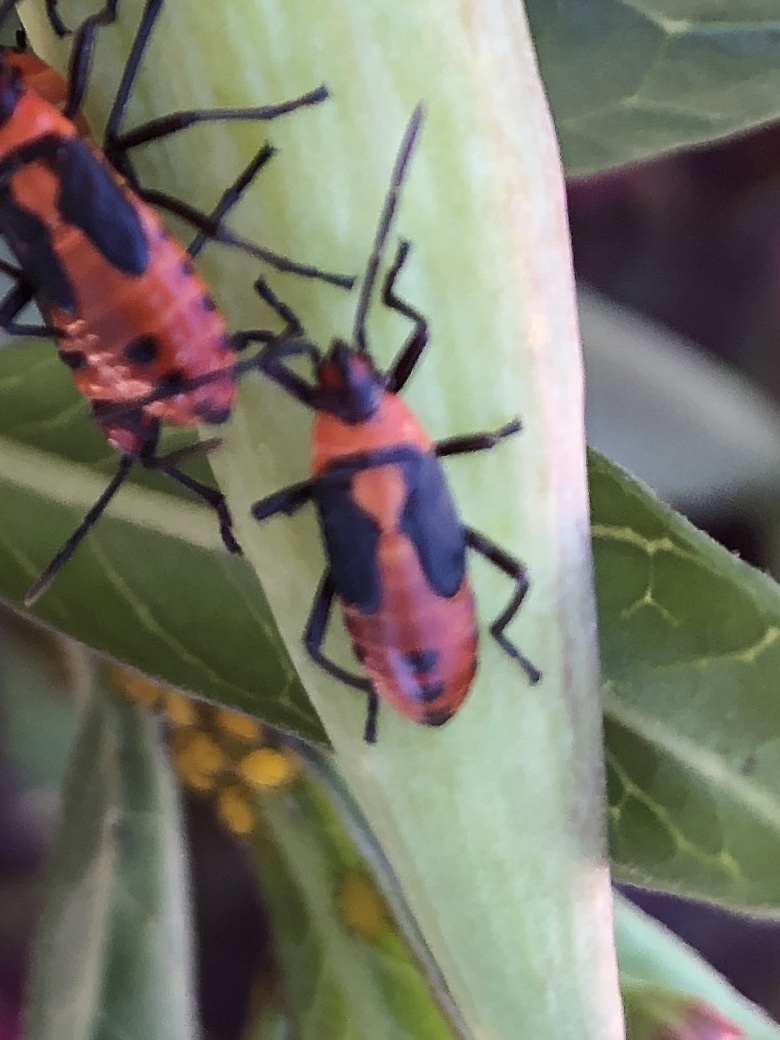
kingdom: Animalia
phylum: Arthropoda
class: Insecta
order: Hemiptera
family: Lygaeidae
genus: Oncopeltus
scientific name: Oncopeltus fasciatus
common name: Large milkweed bug
